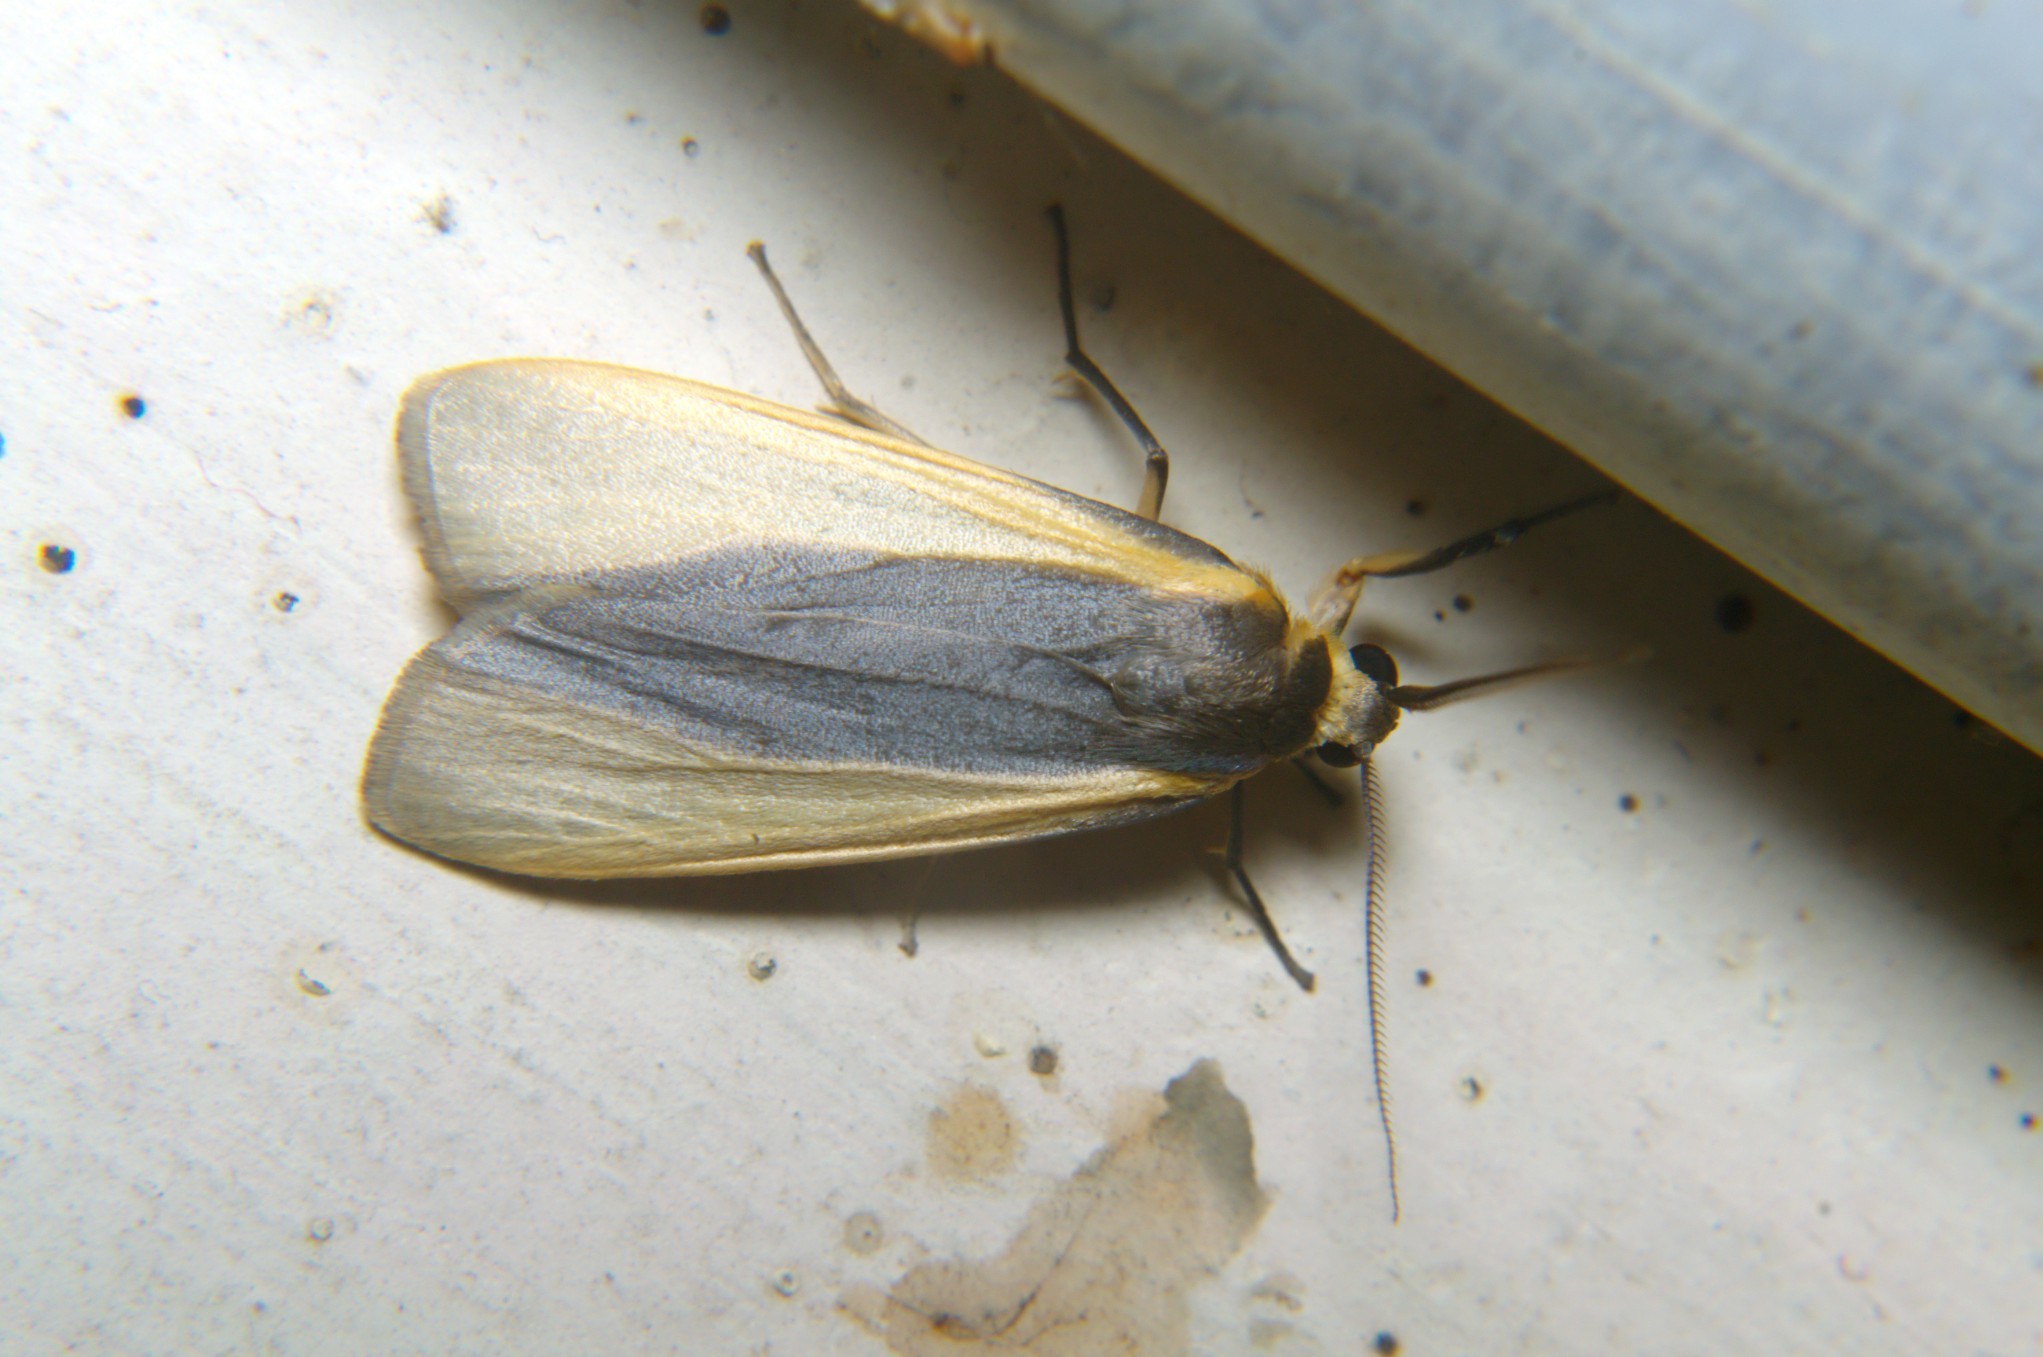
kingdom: Animalia
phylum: Arthropoda
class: Insecta
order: Lepidoptera
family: Erebidae
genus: Hesudra
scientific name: Hesudra divisa
